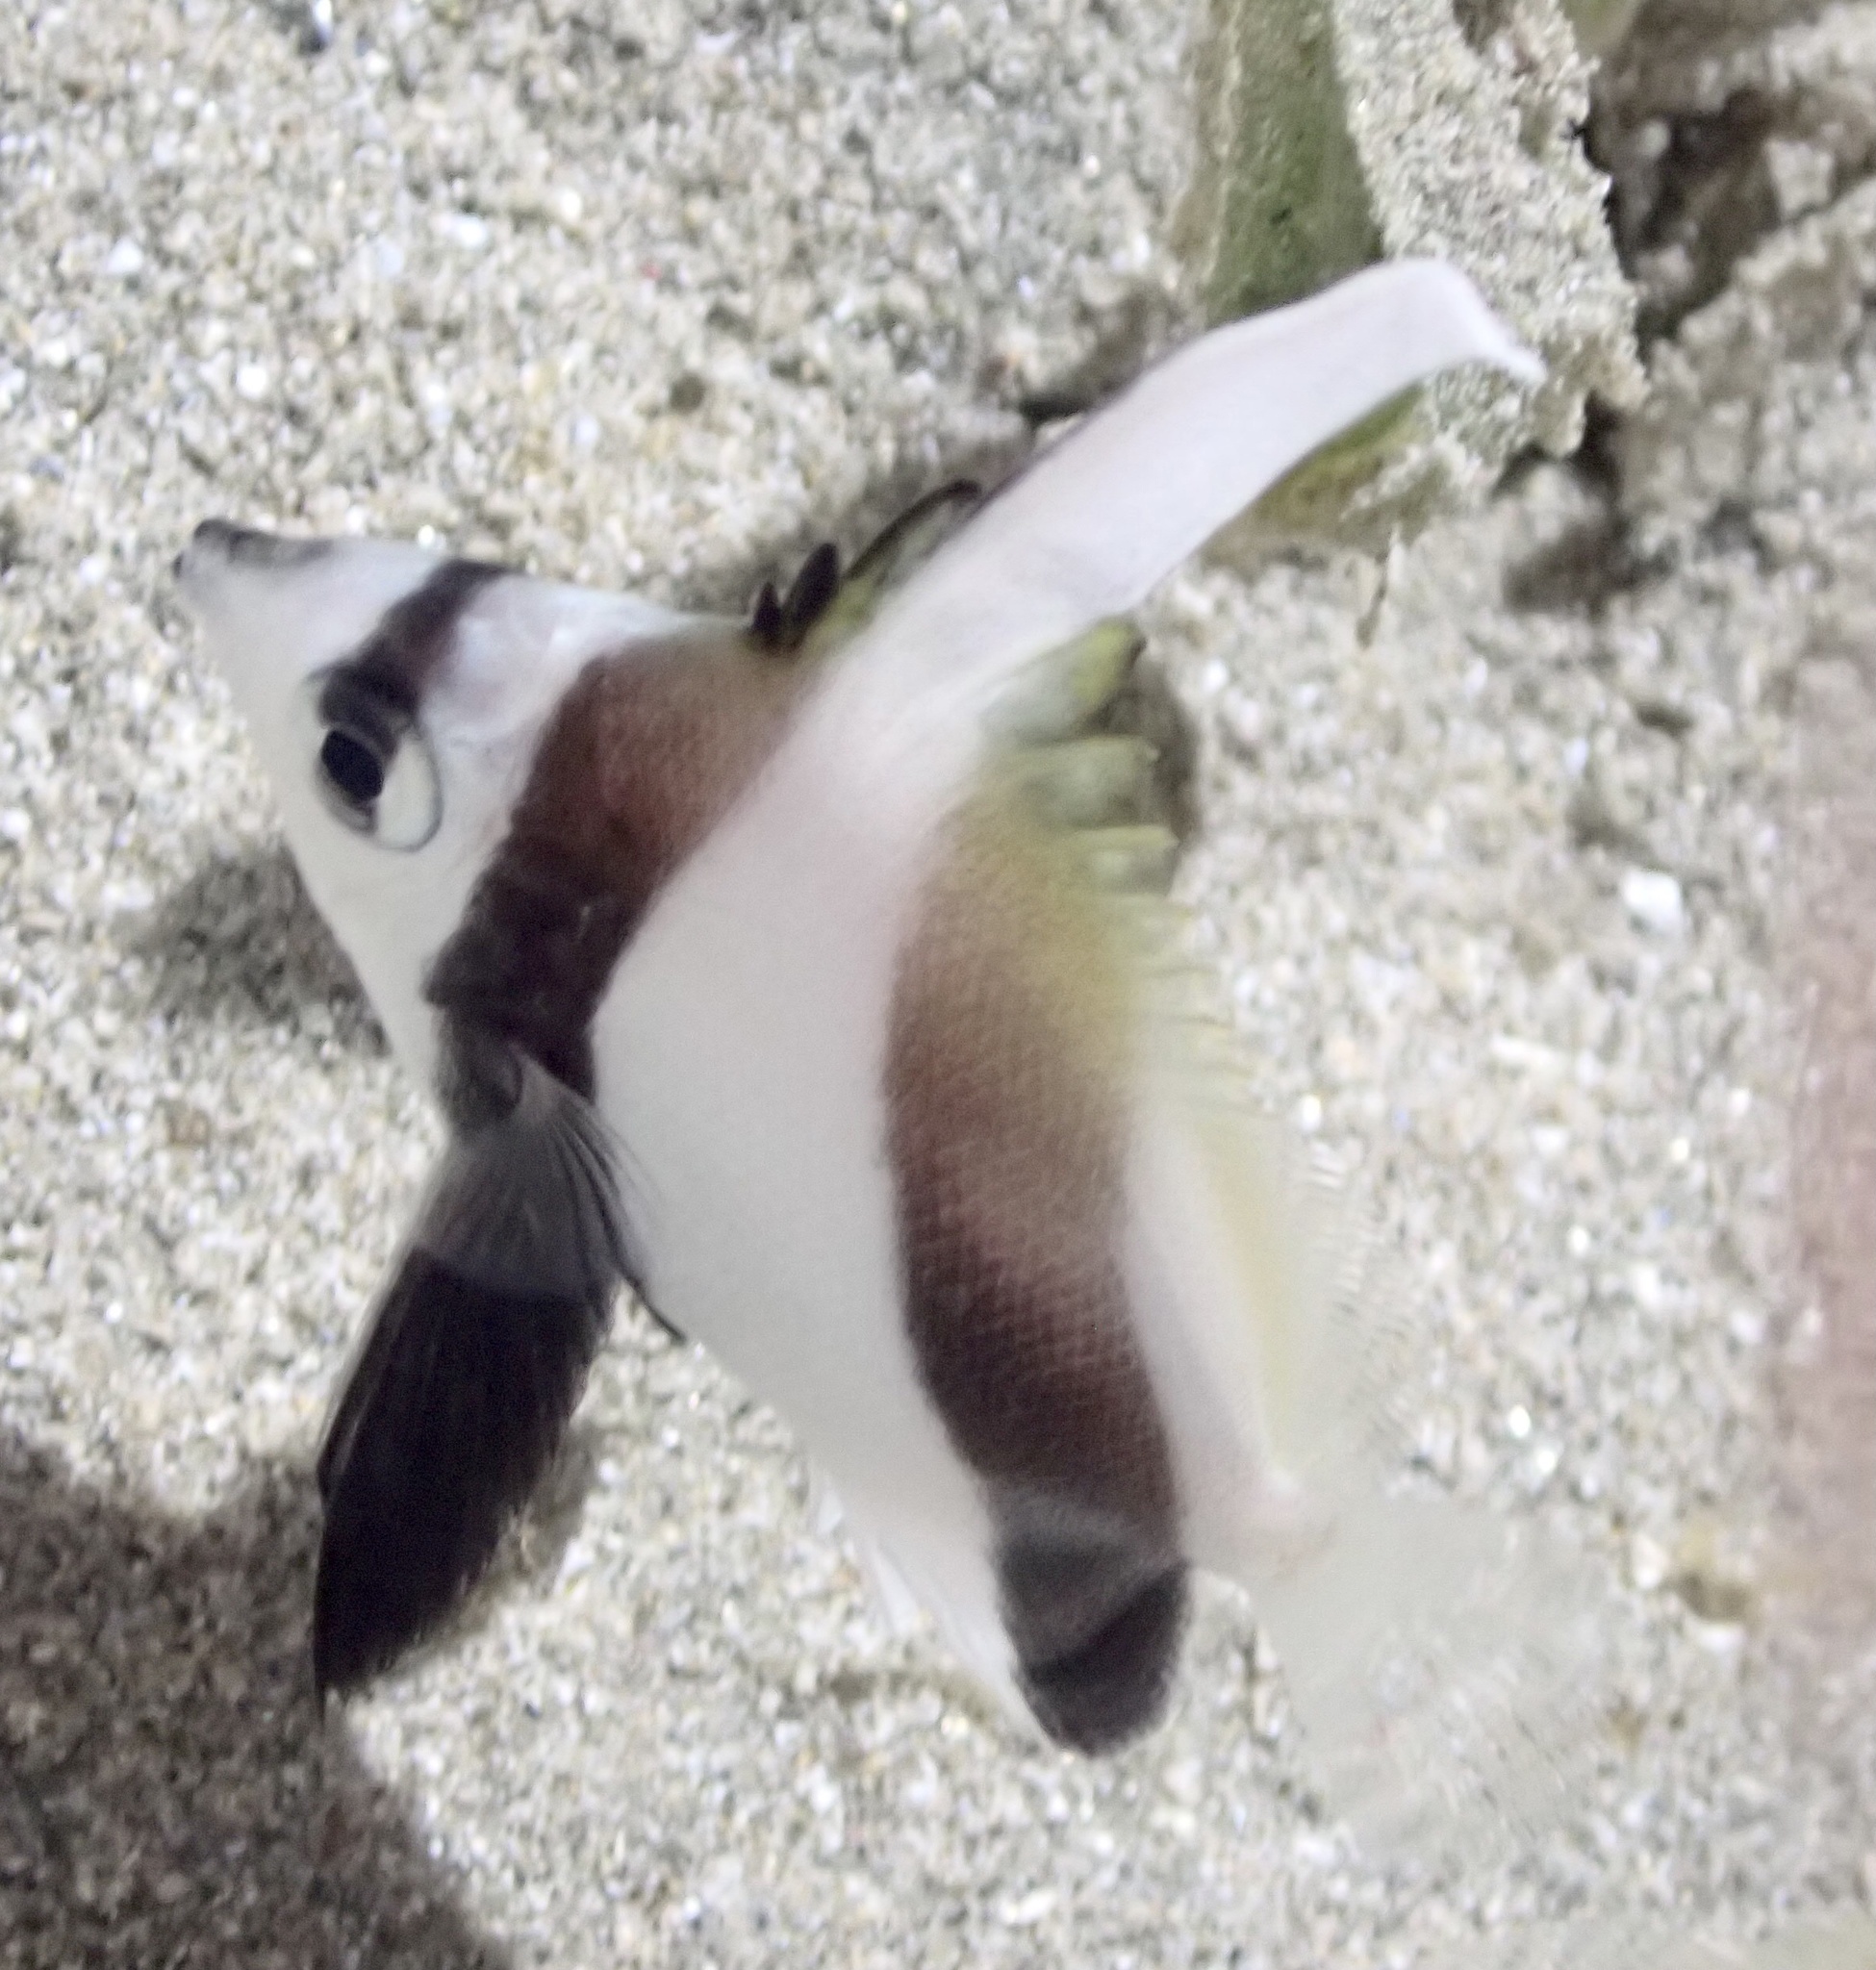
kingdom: Animalia
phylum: Chordata
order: Perciformes
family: Chaetodontidae
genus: Heniochus
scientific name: Heniochus diphreutes
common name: Pennantfish
